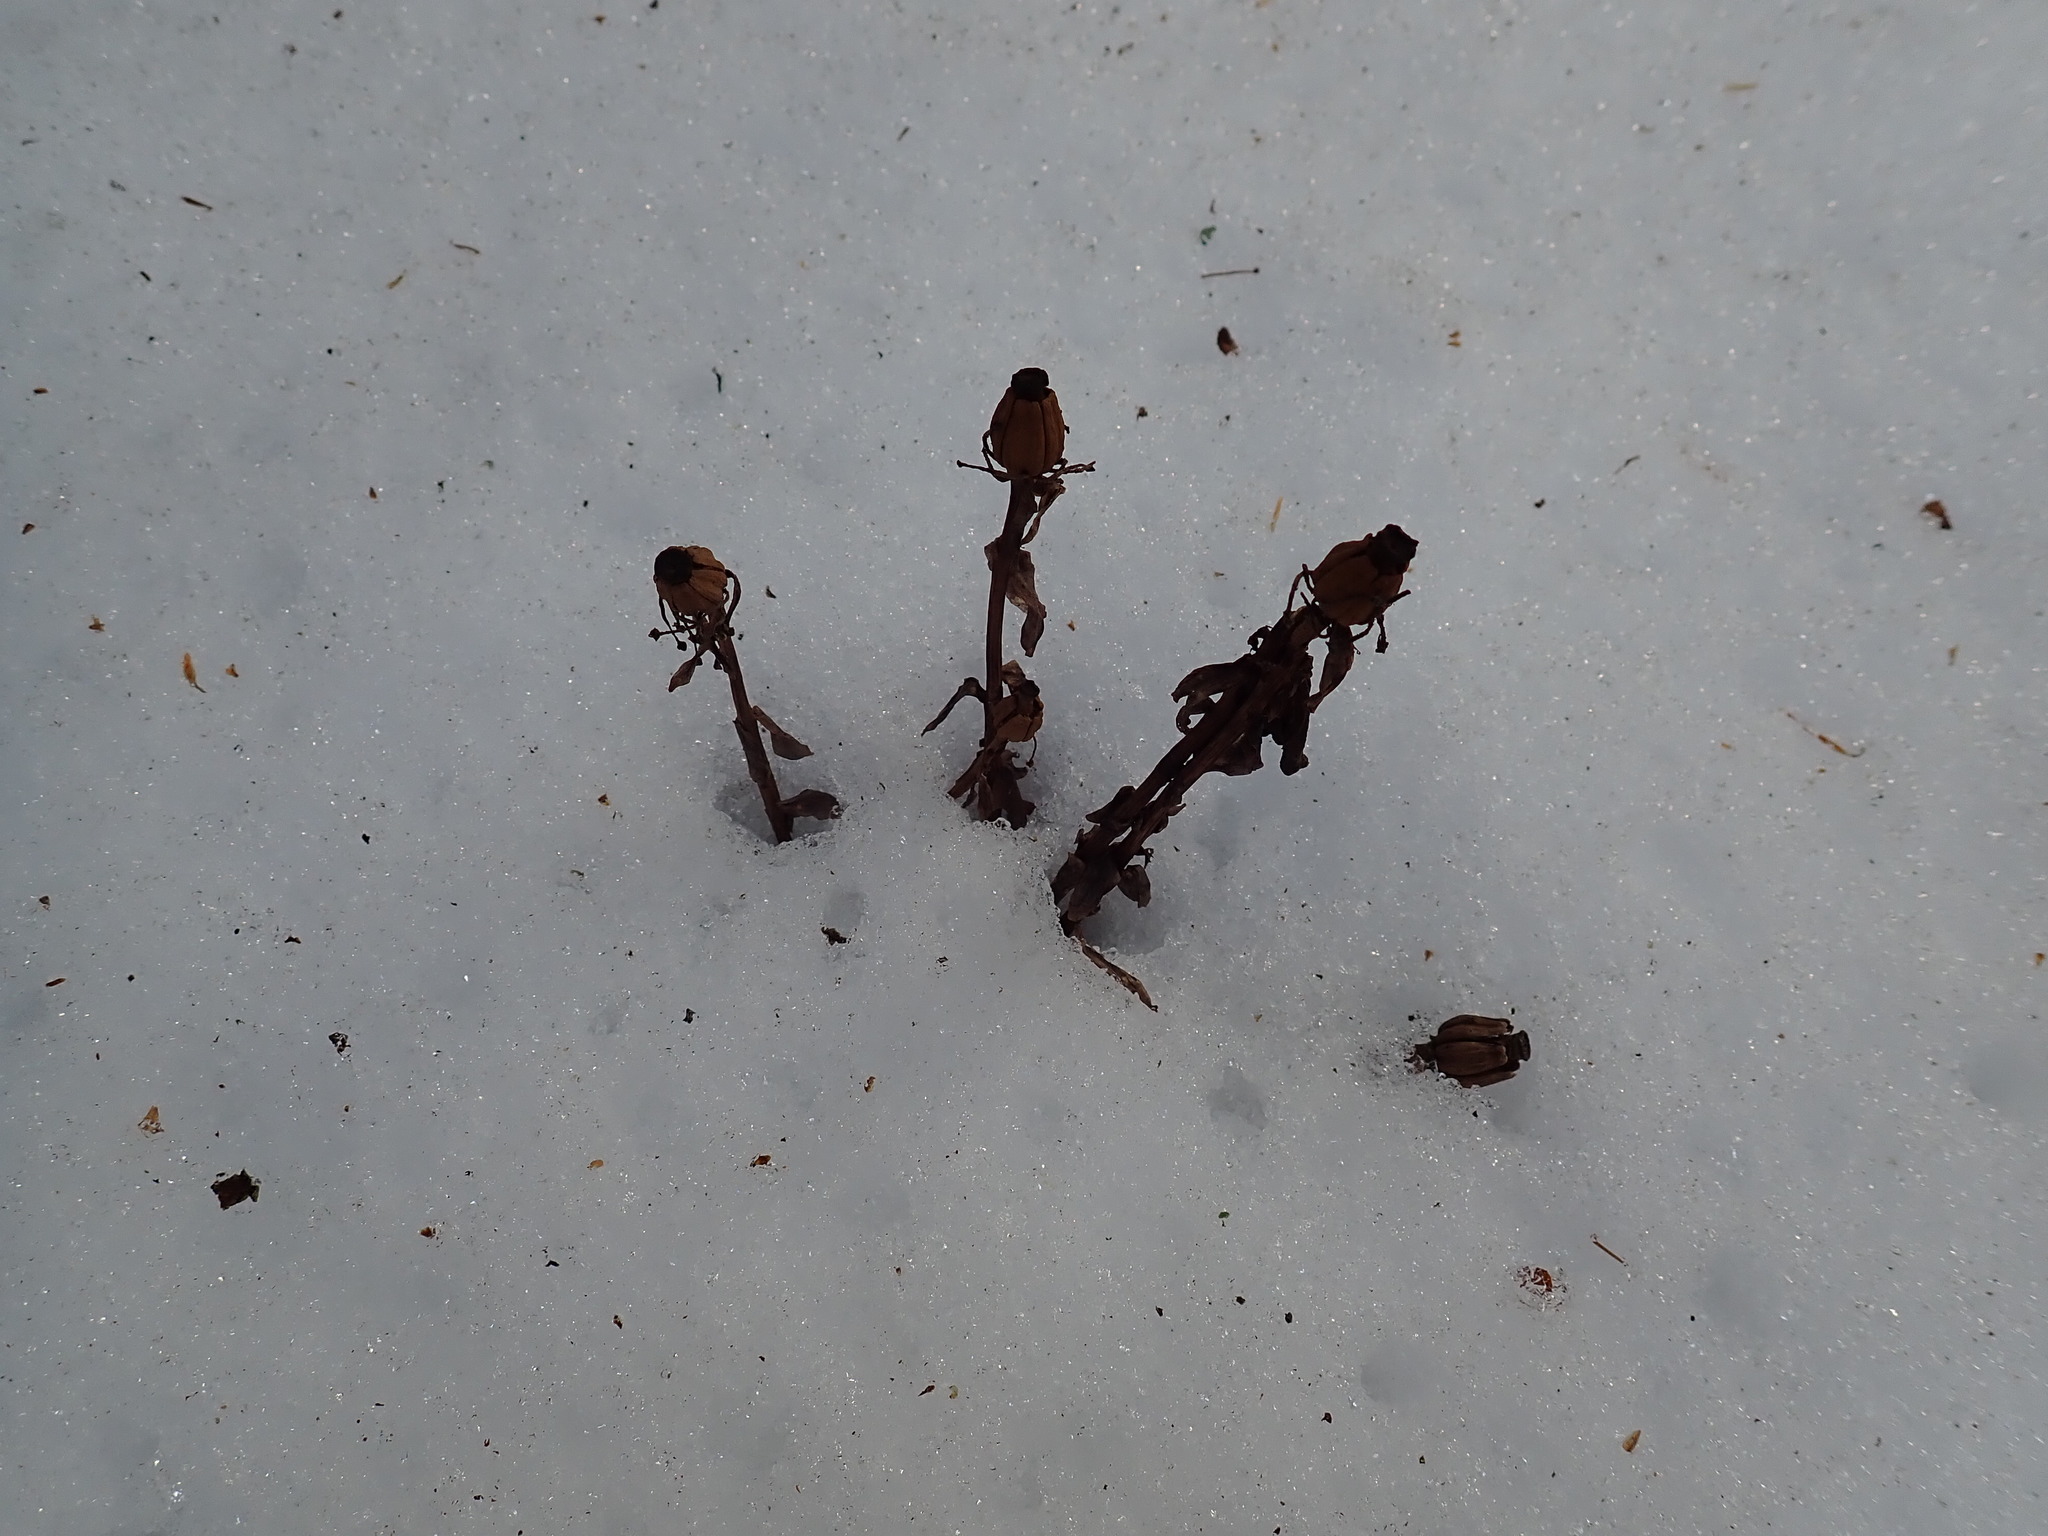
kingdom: Plantae
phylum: Tracheophyta
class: Magnoliopsida
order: Ericales
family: Ericaceae
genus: Monotropa
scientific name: Monotropa uniflora
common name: Convulsion root
